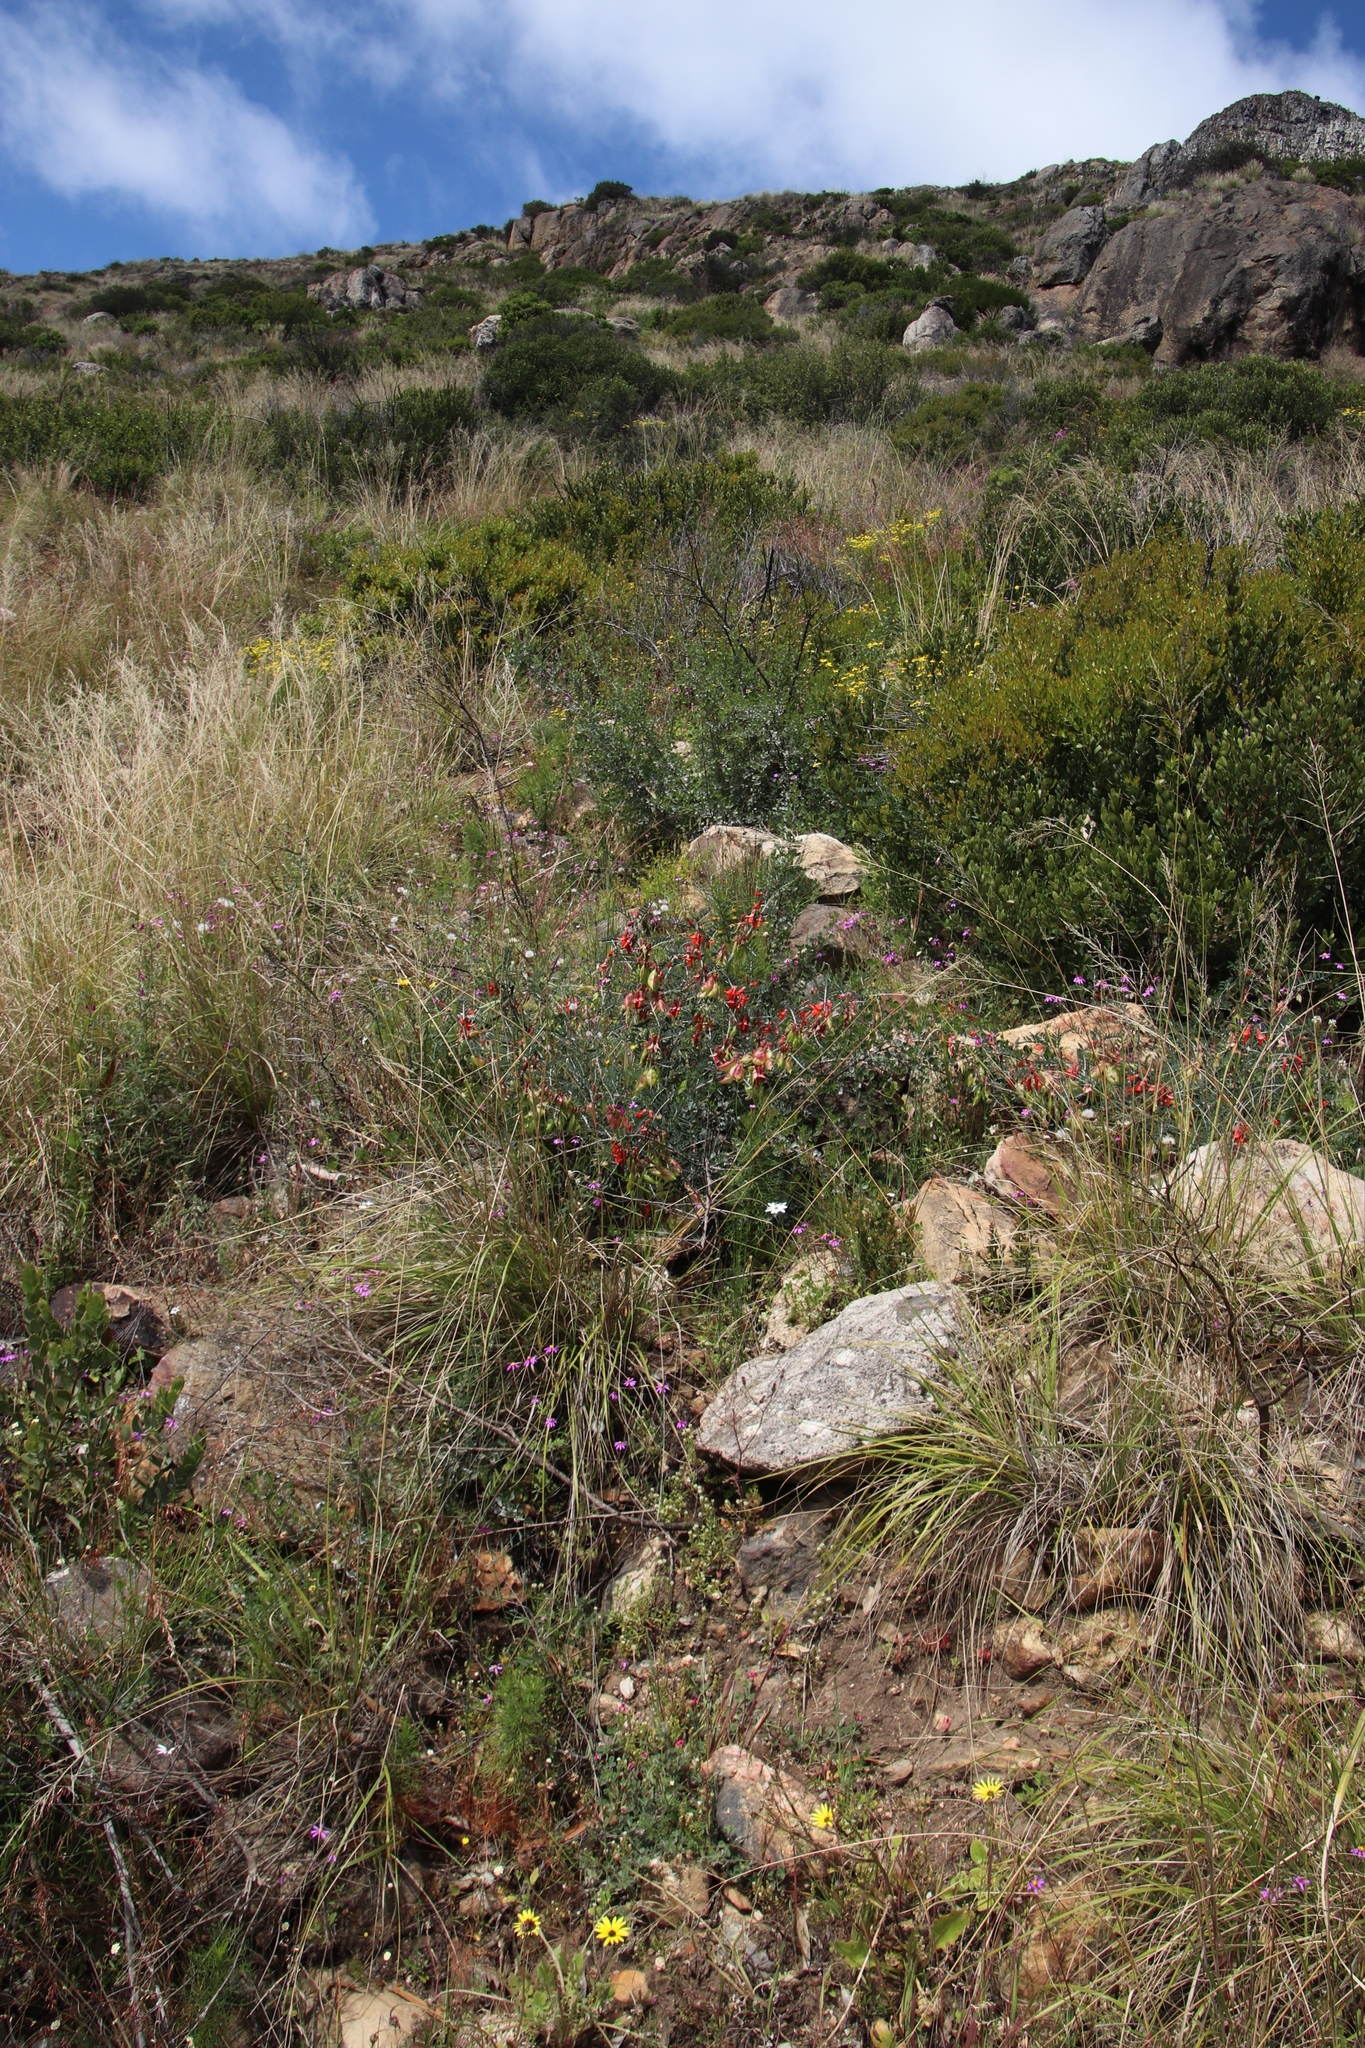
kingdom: Plantae
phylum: Tracheophyta
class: Magnoliopsida
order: Fabales
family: Fabaceae
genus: Lessertia
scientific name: Lessertia frutescens
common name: Balloon-pea
